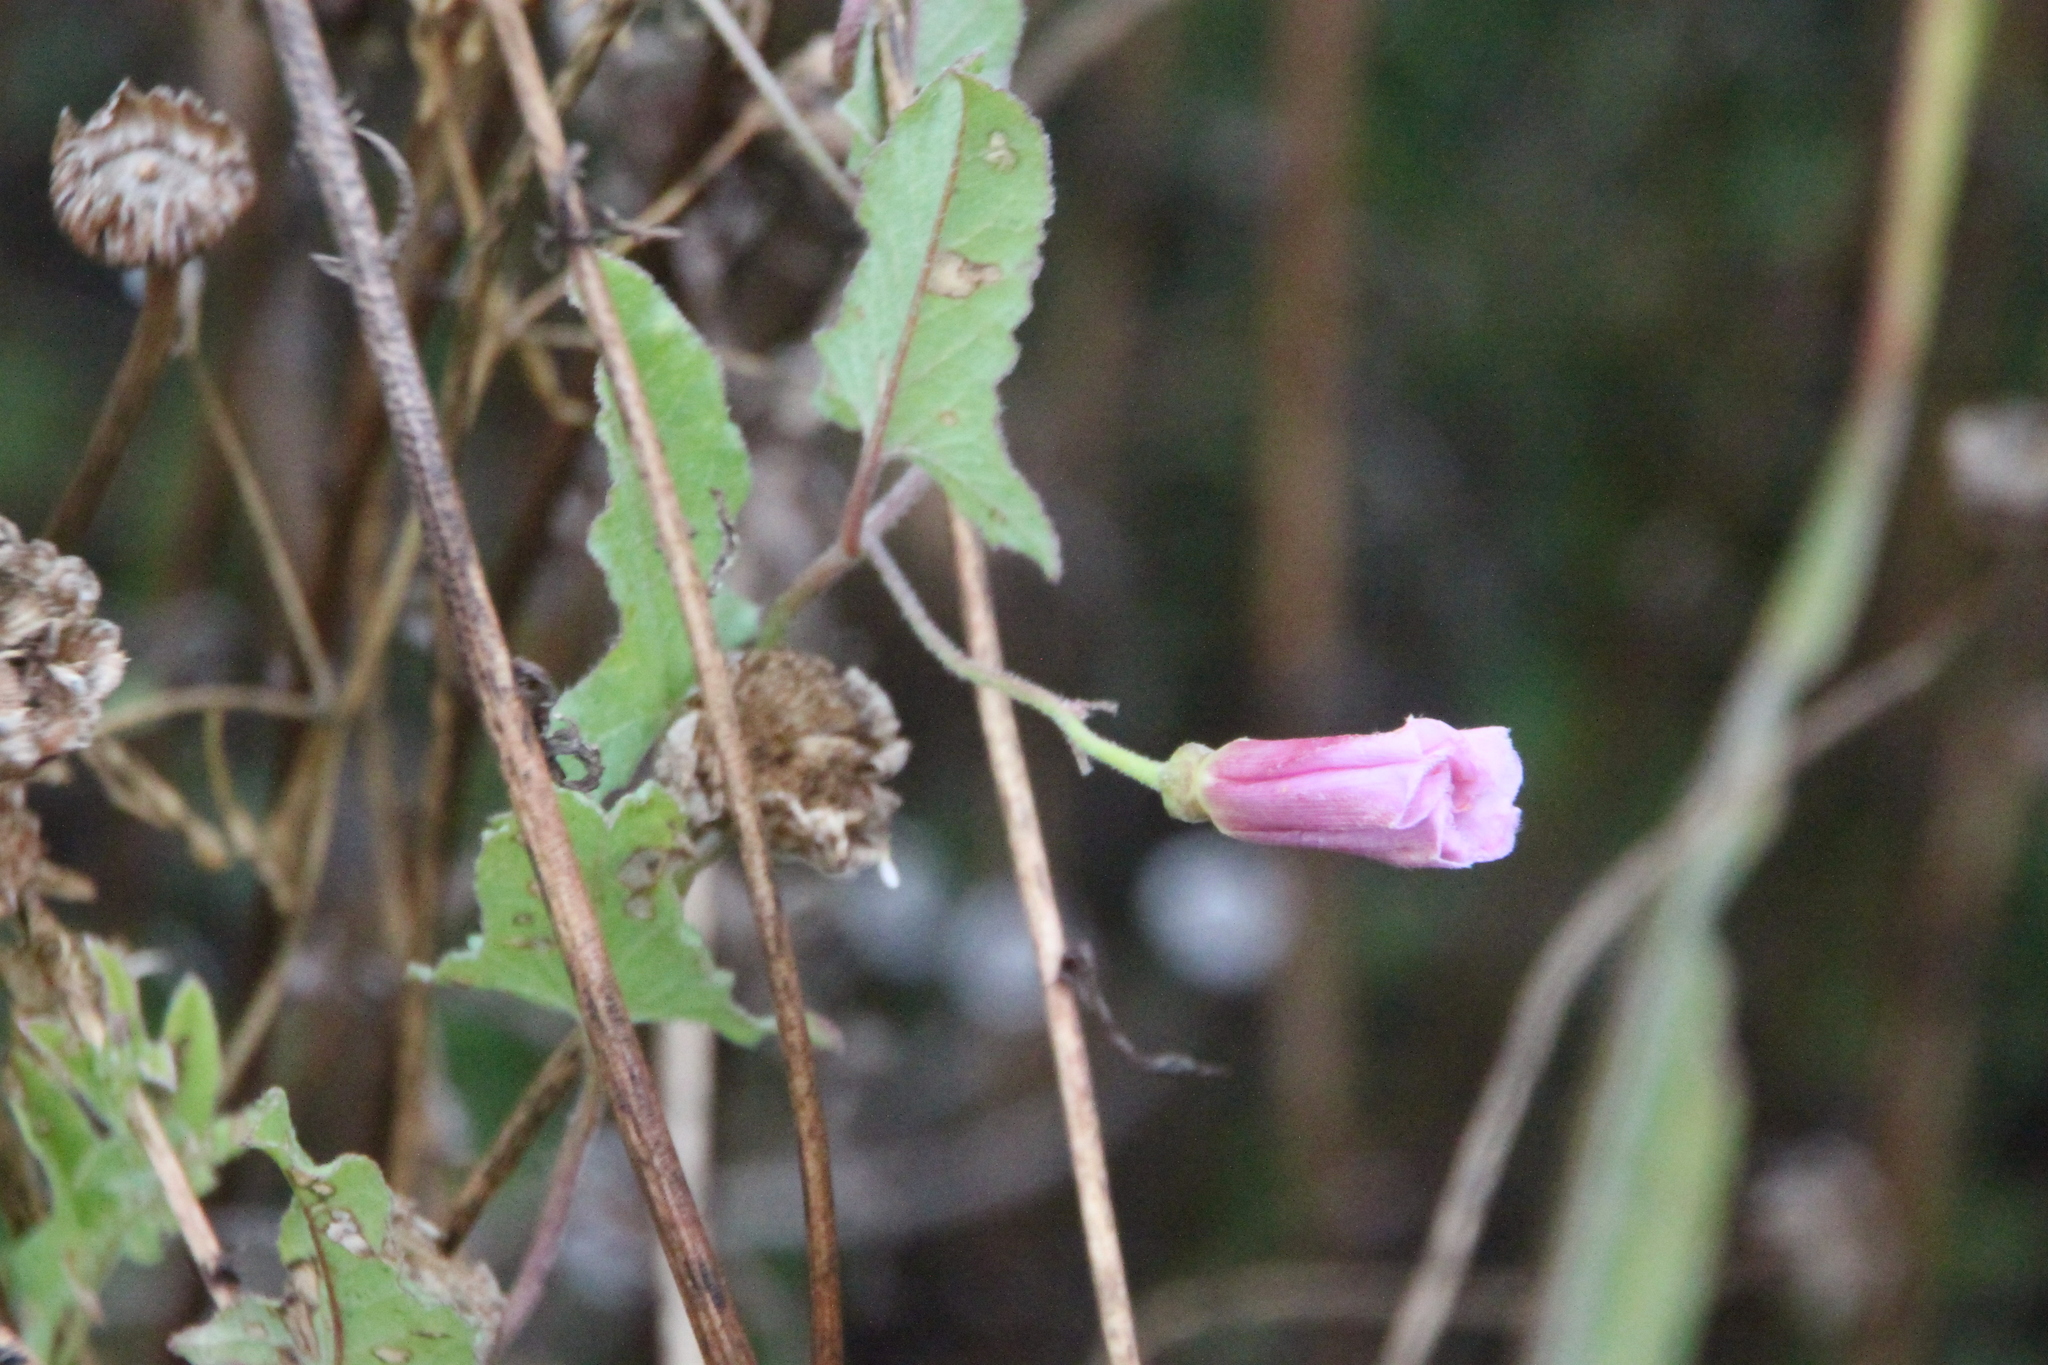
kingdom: Plantae
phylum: Tracheophyta
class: Magnoliopsida
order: Solanales
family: Convolvulaceae
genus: Convolvulus
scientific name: Convolvulus arvensis
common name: Field bindweed
